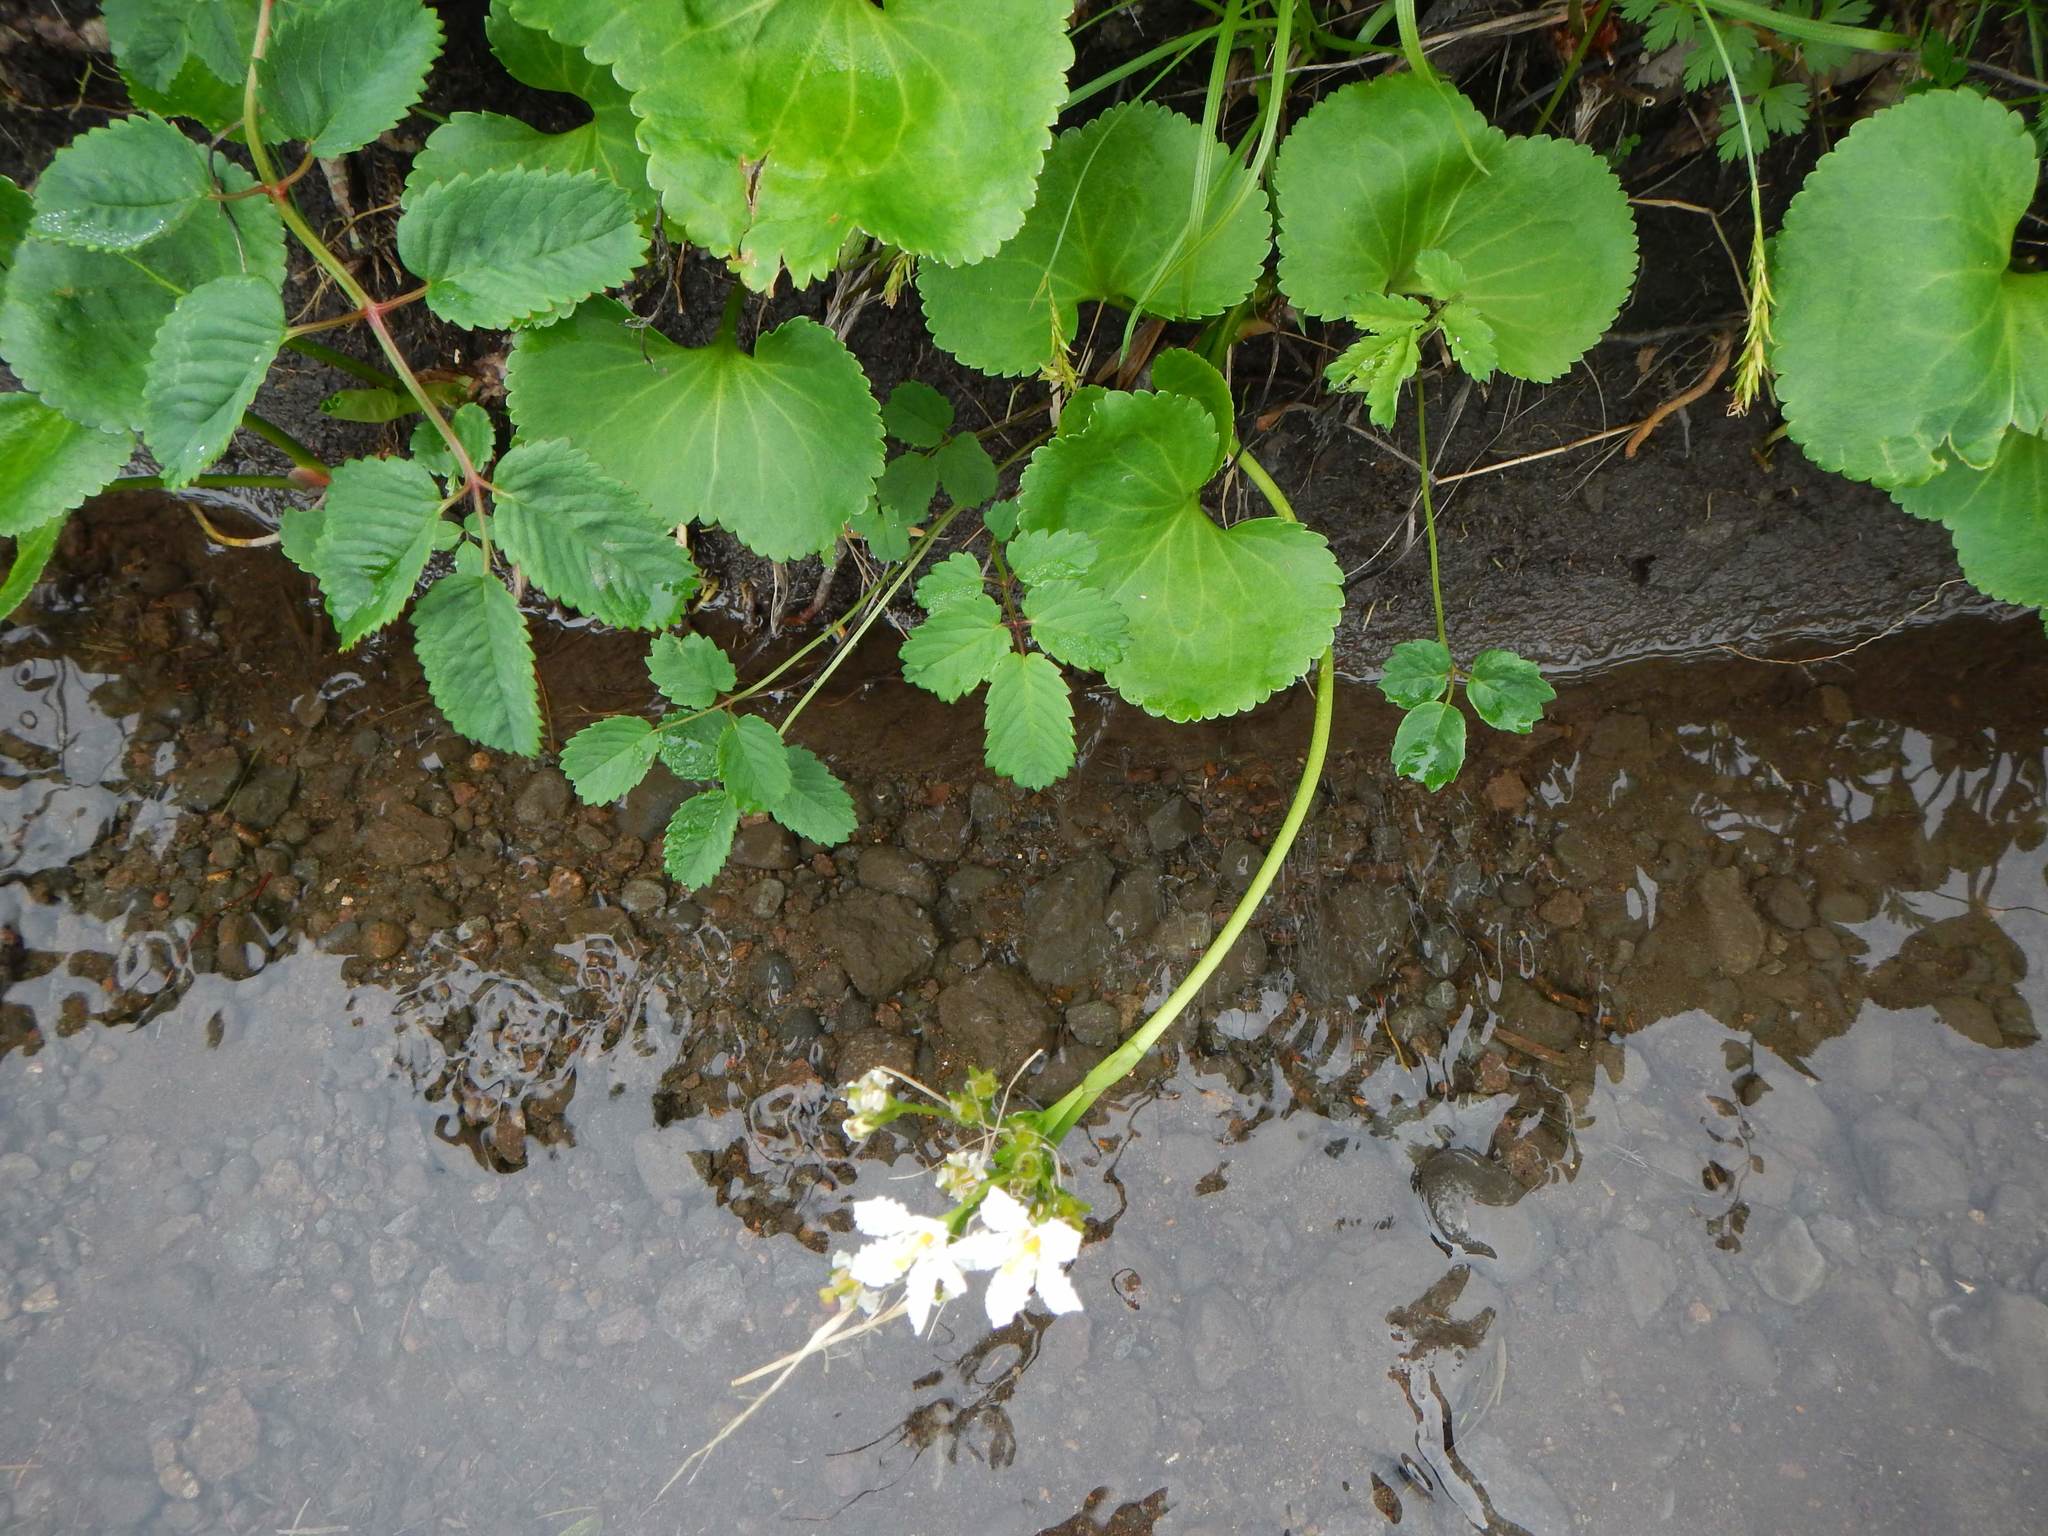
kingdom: Plantae
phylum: Tracheophyta
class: Magnoliopsida
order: Asterales
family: Menyanthaceae
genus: Nephrophyllidium
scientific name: Nephrophyllidium crista-galli
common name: Deer-cabbage
